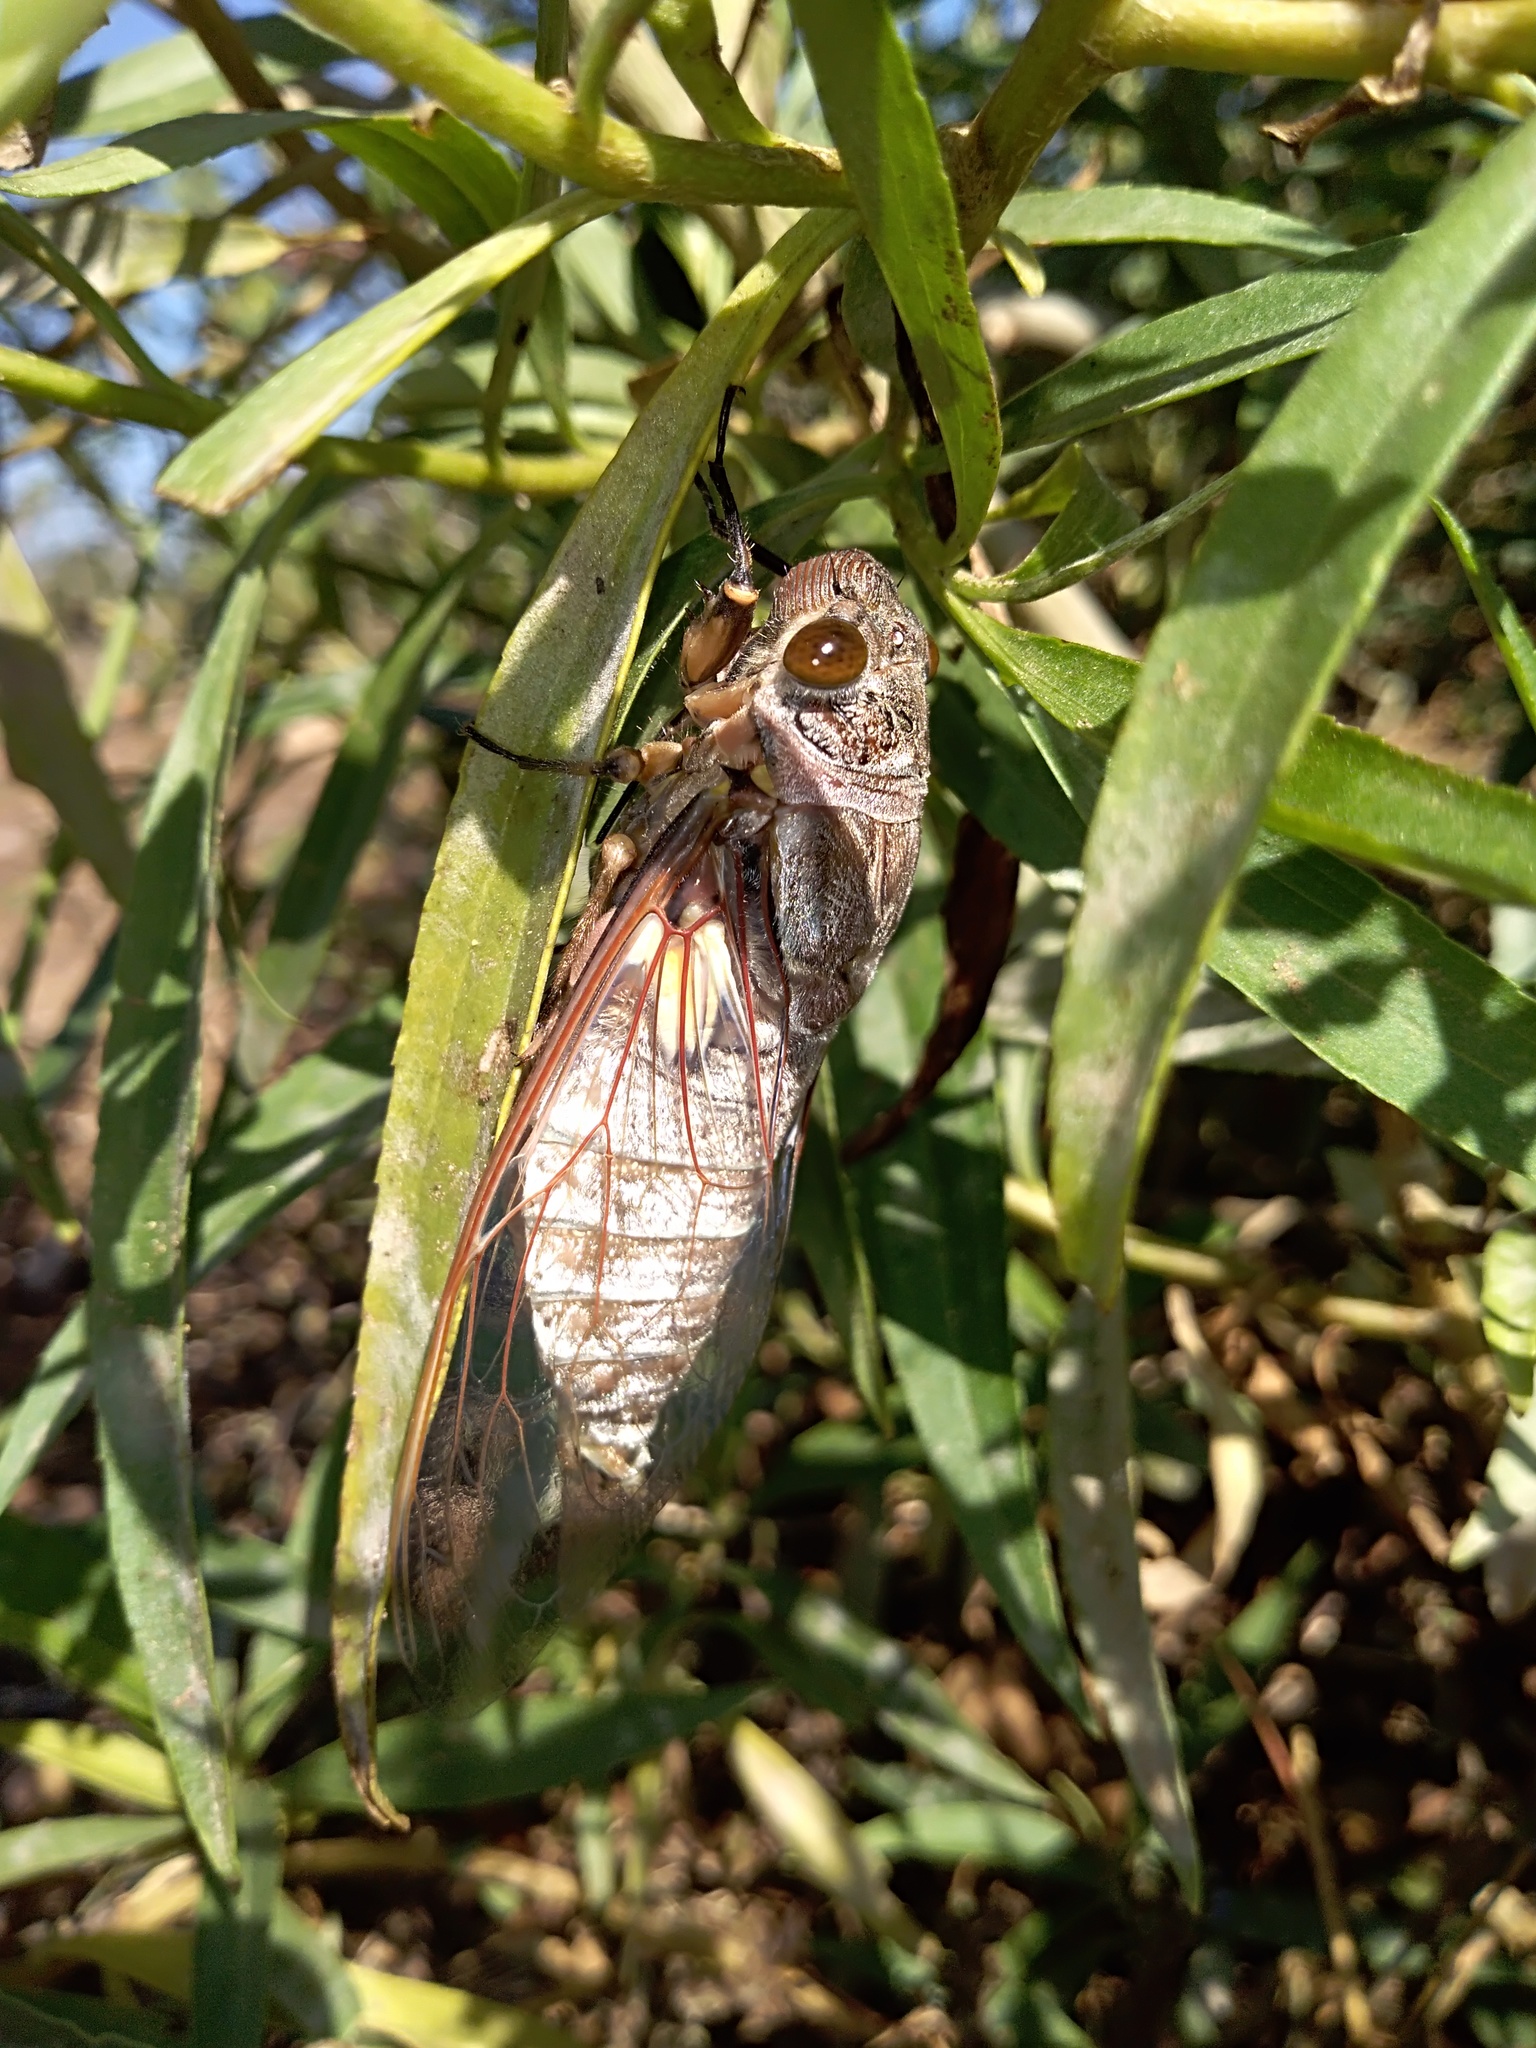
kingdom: Animalia
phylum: Arthropoda
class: Insecta
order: Hemiptera
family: Cicadidae
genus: Quesada
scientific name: Quesada gigas
